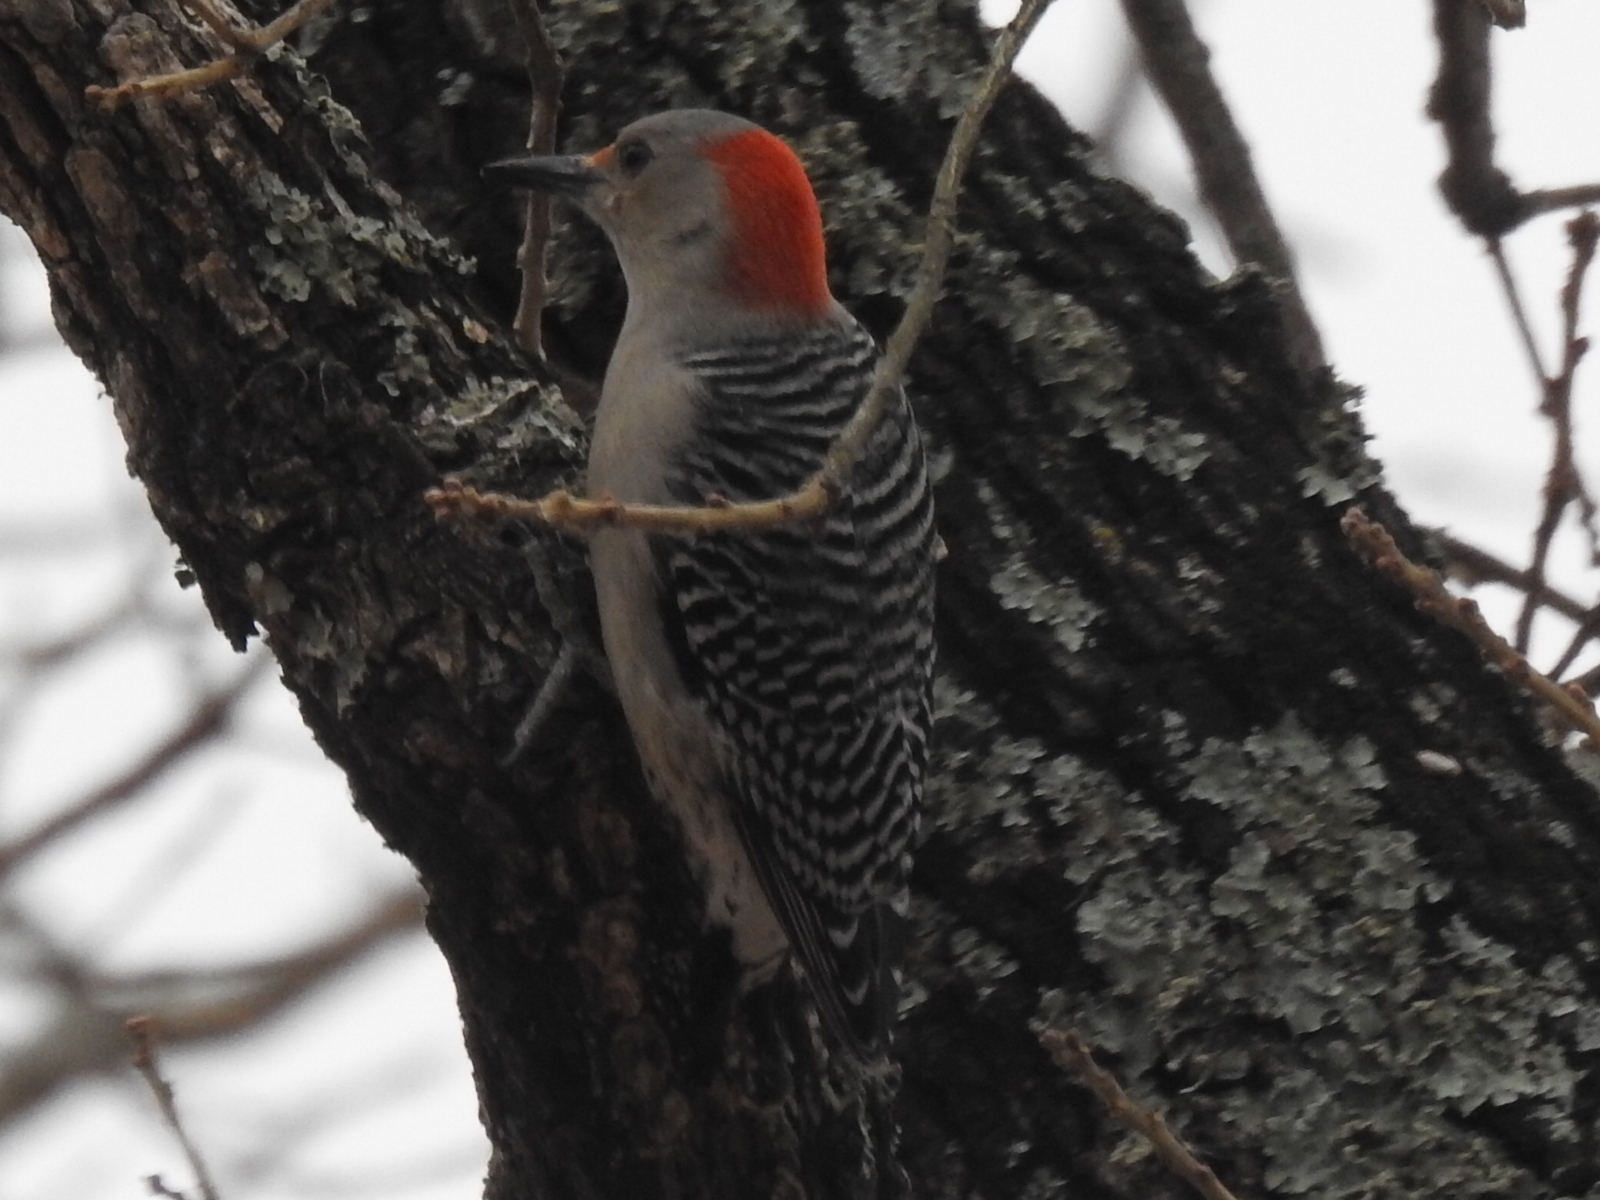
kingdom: Animalia
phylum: Chordata
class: Aves
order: Piciformes
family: Picidae
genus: Melanerpes
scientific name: Melanerpes carolinus
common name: Red-bellied woodpecker
